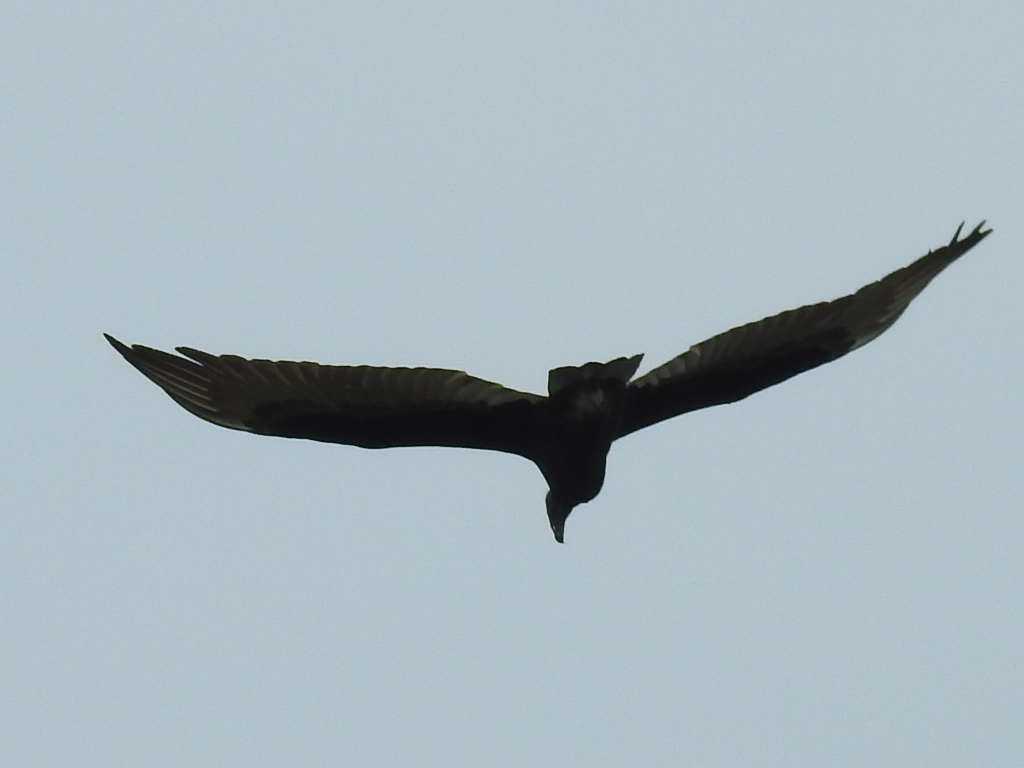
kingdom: Animalia
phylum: Chordata
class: Aves
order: Accipitriformes
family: Cathartidae
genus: Cathartes
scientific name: Cathartes aura
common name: Turkey vulture
